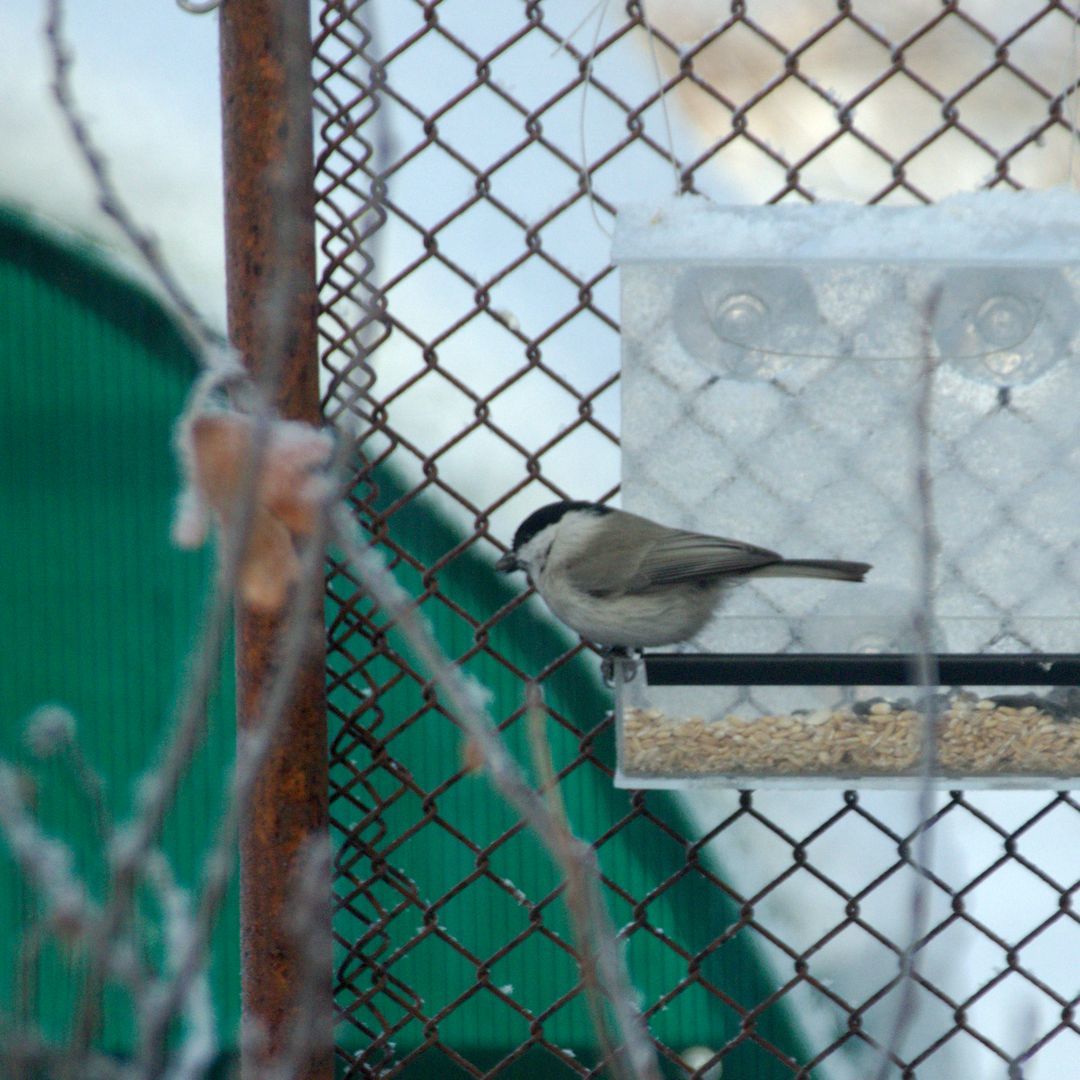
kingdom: Animalia
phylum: Chordata
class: Aves
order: Passeriformes
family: Paridae
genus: Poecile
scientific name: Poecile montanus
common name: Willow tit
